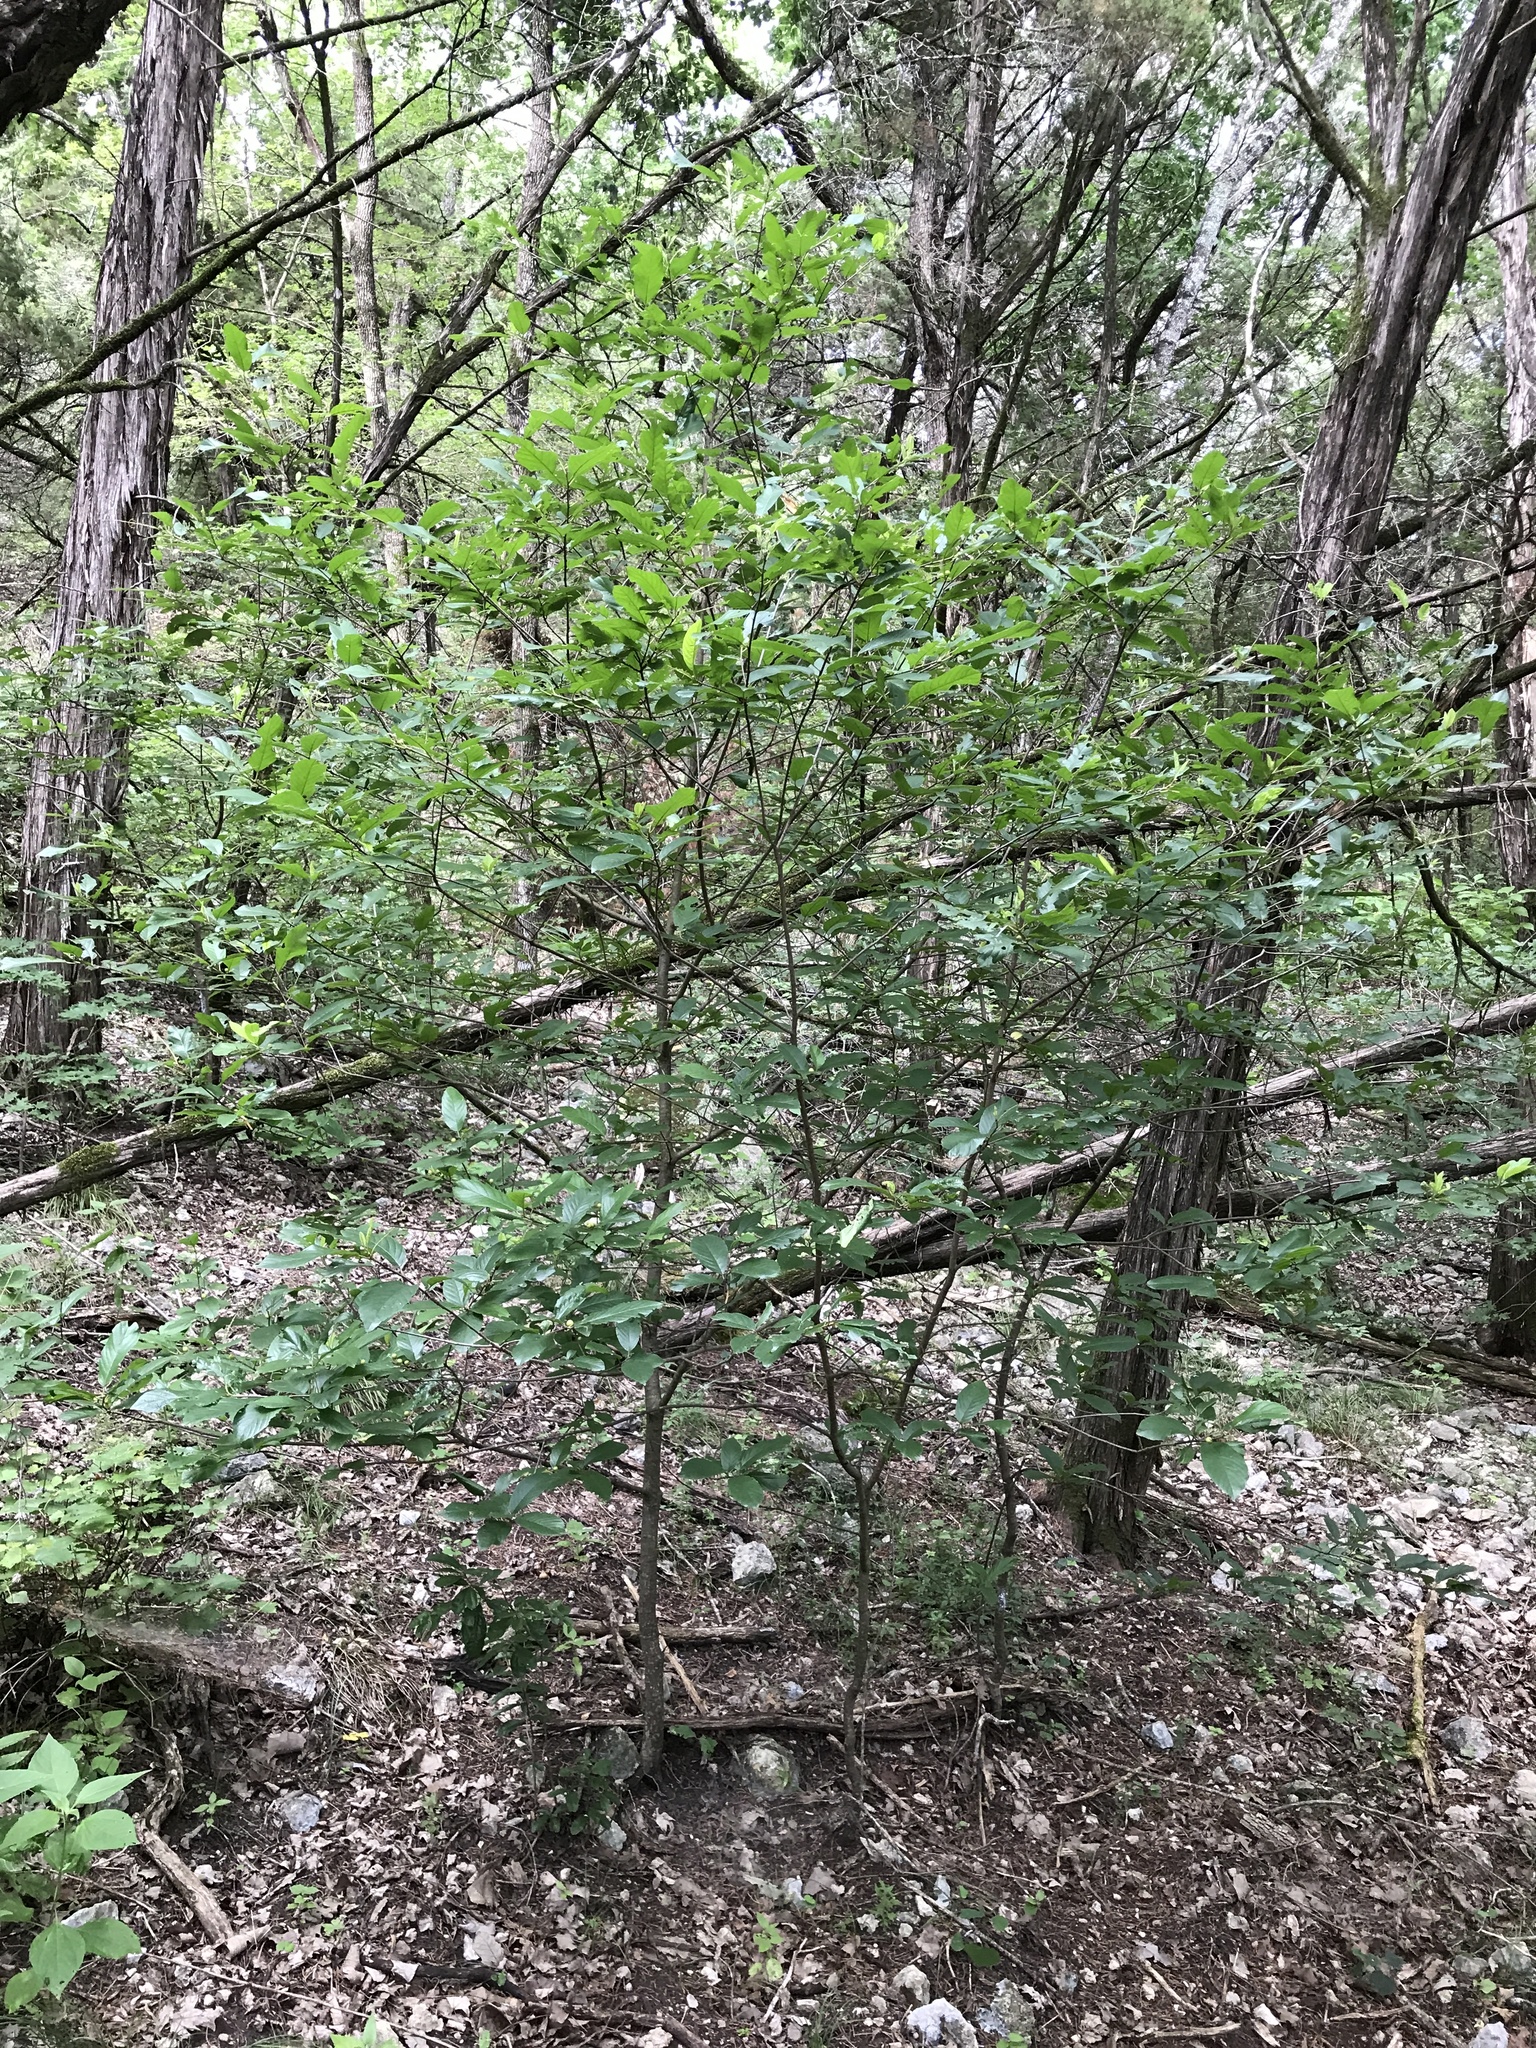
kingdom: Plantae
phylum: Tracheophyta
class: Magnoliopsida
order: Rosales
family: Rhamnaceae
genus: Frangula
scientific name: Frangula caroliniana
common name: Carolina buckthorn
